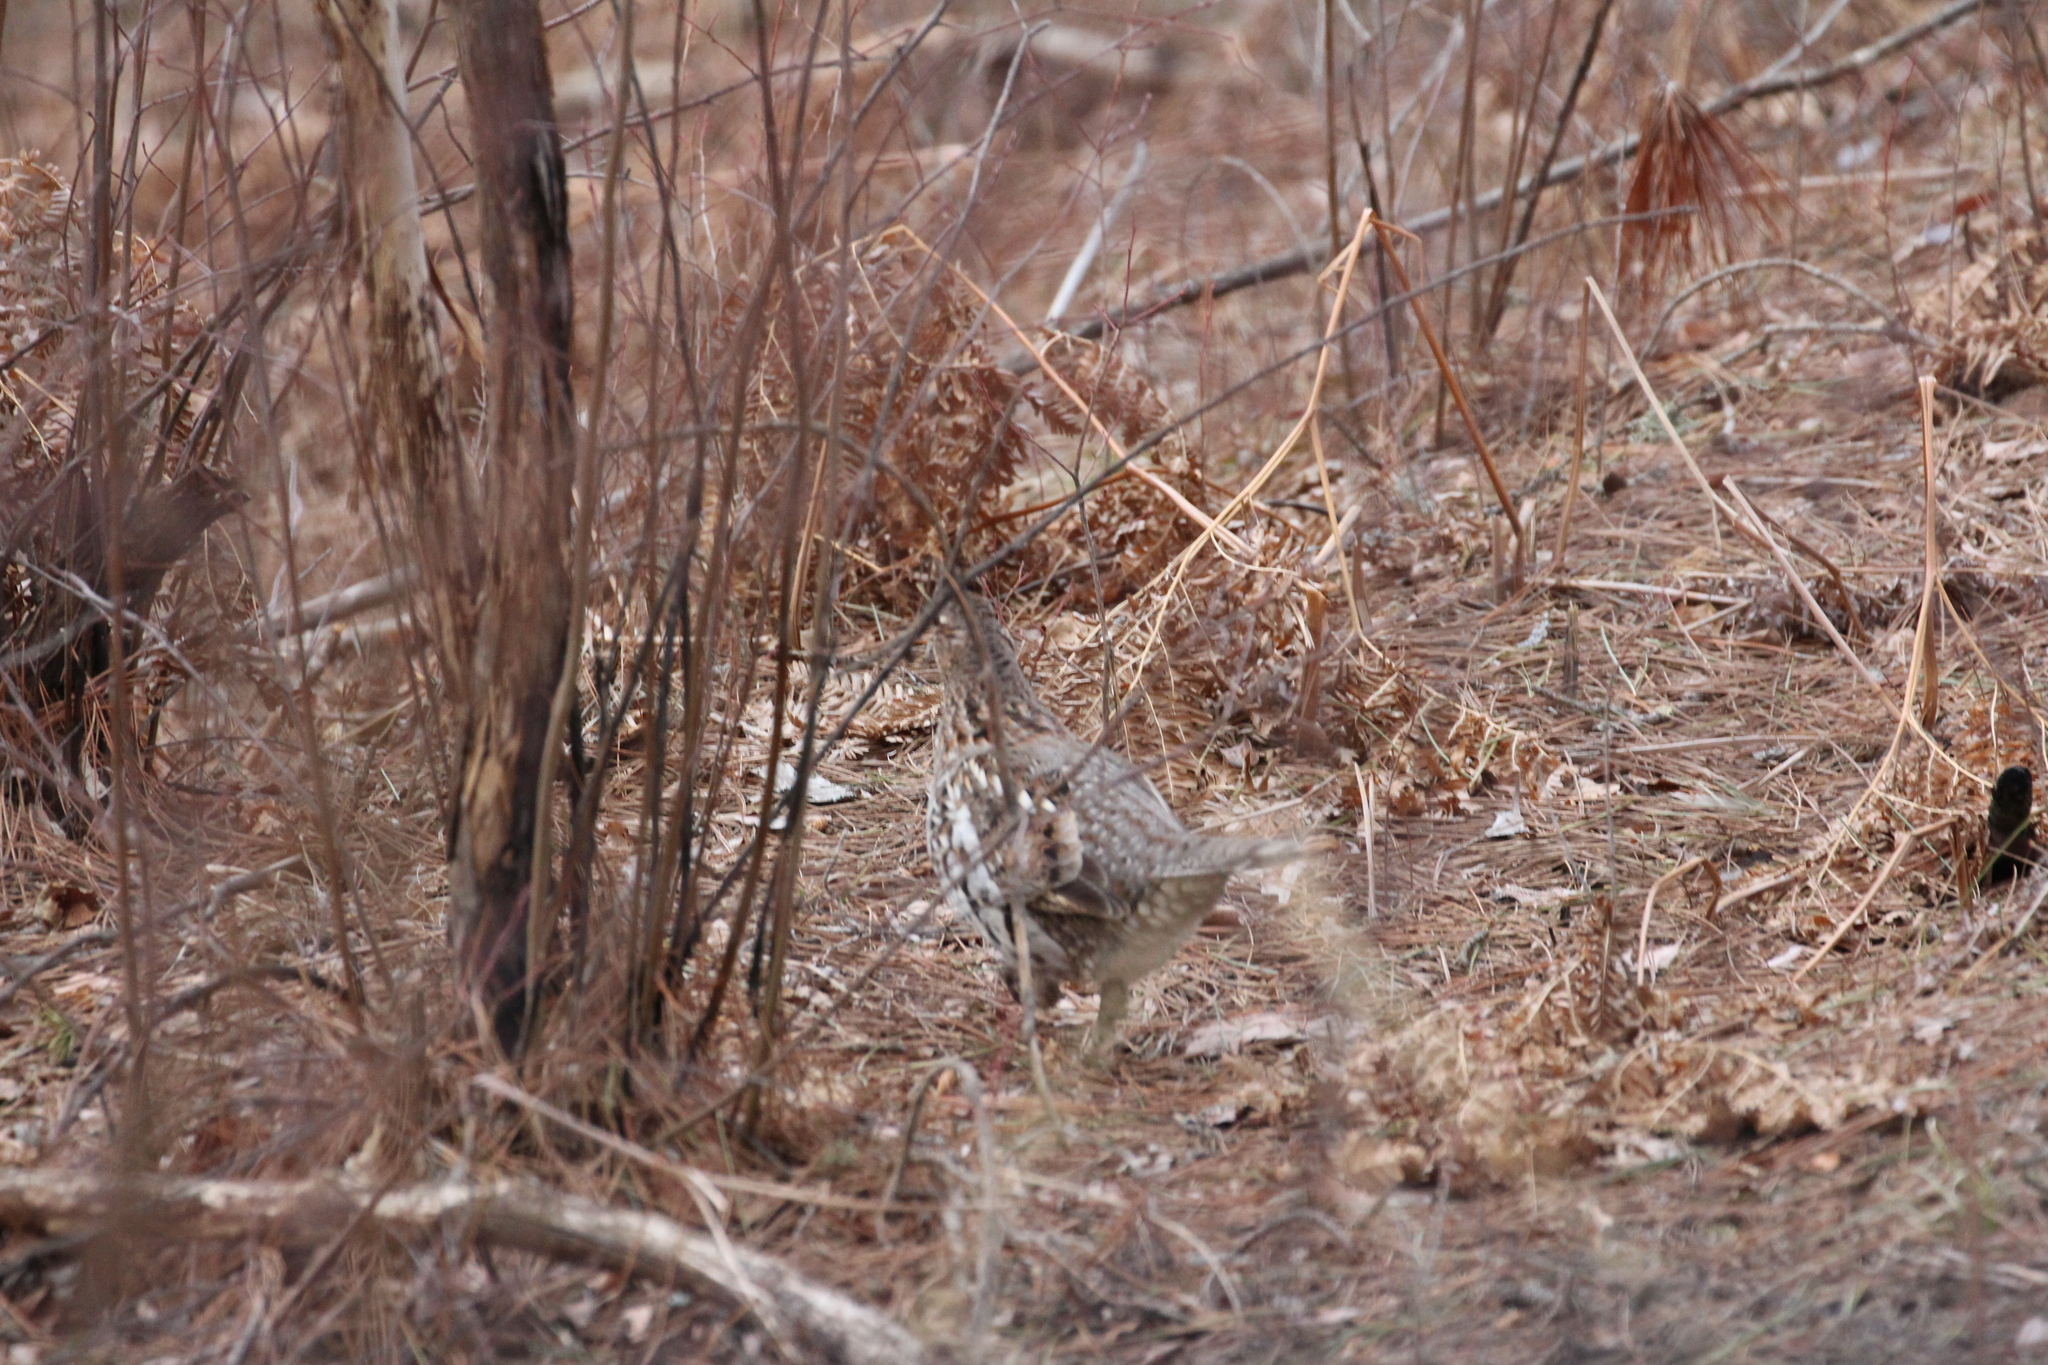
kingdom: Animalia
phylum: Chordata
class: Aves
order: Galliformes
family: Phasianidae
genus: Bonasa
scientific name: Bonasa umbellus
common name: Ruffed grouse
